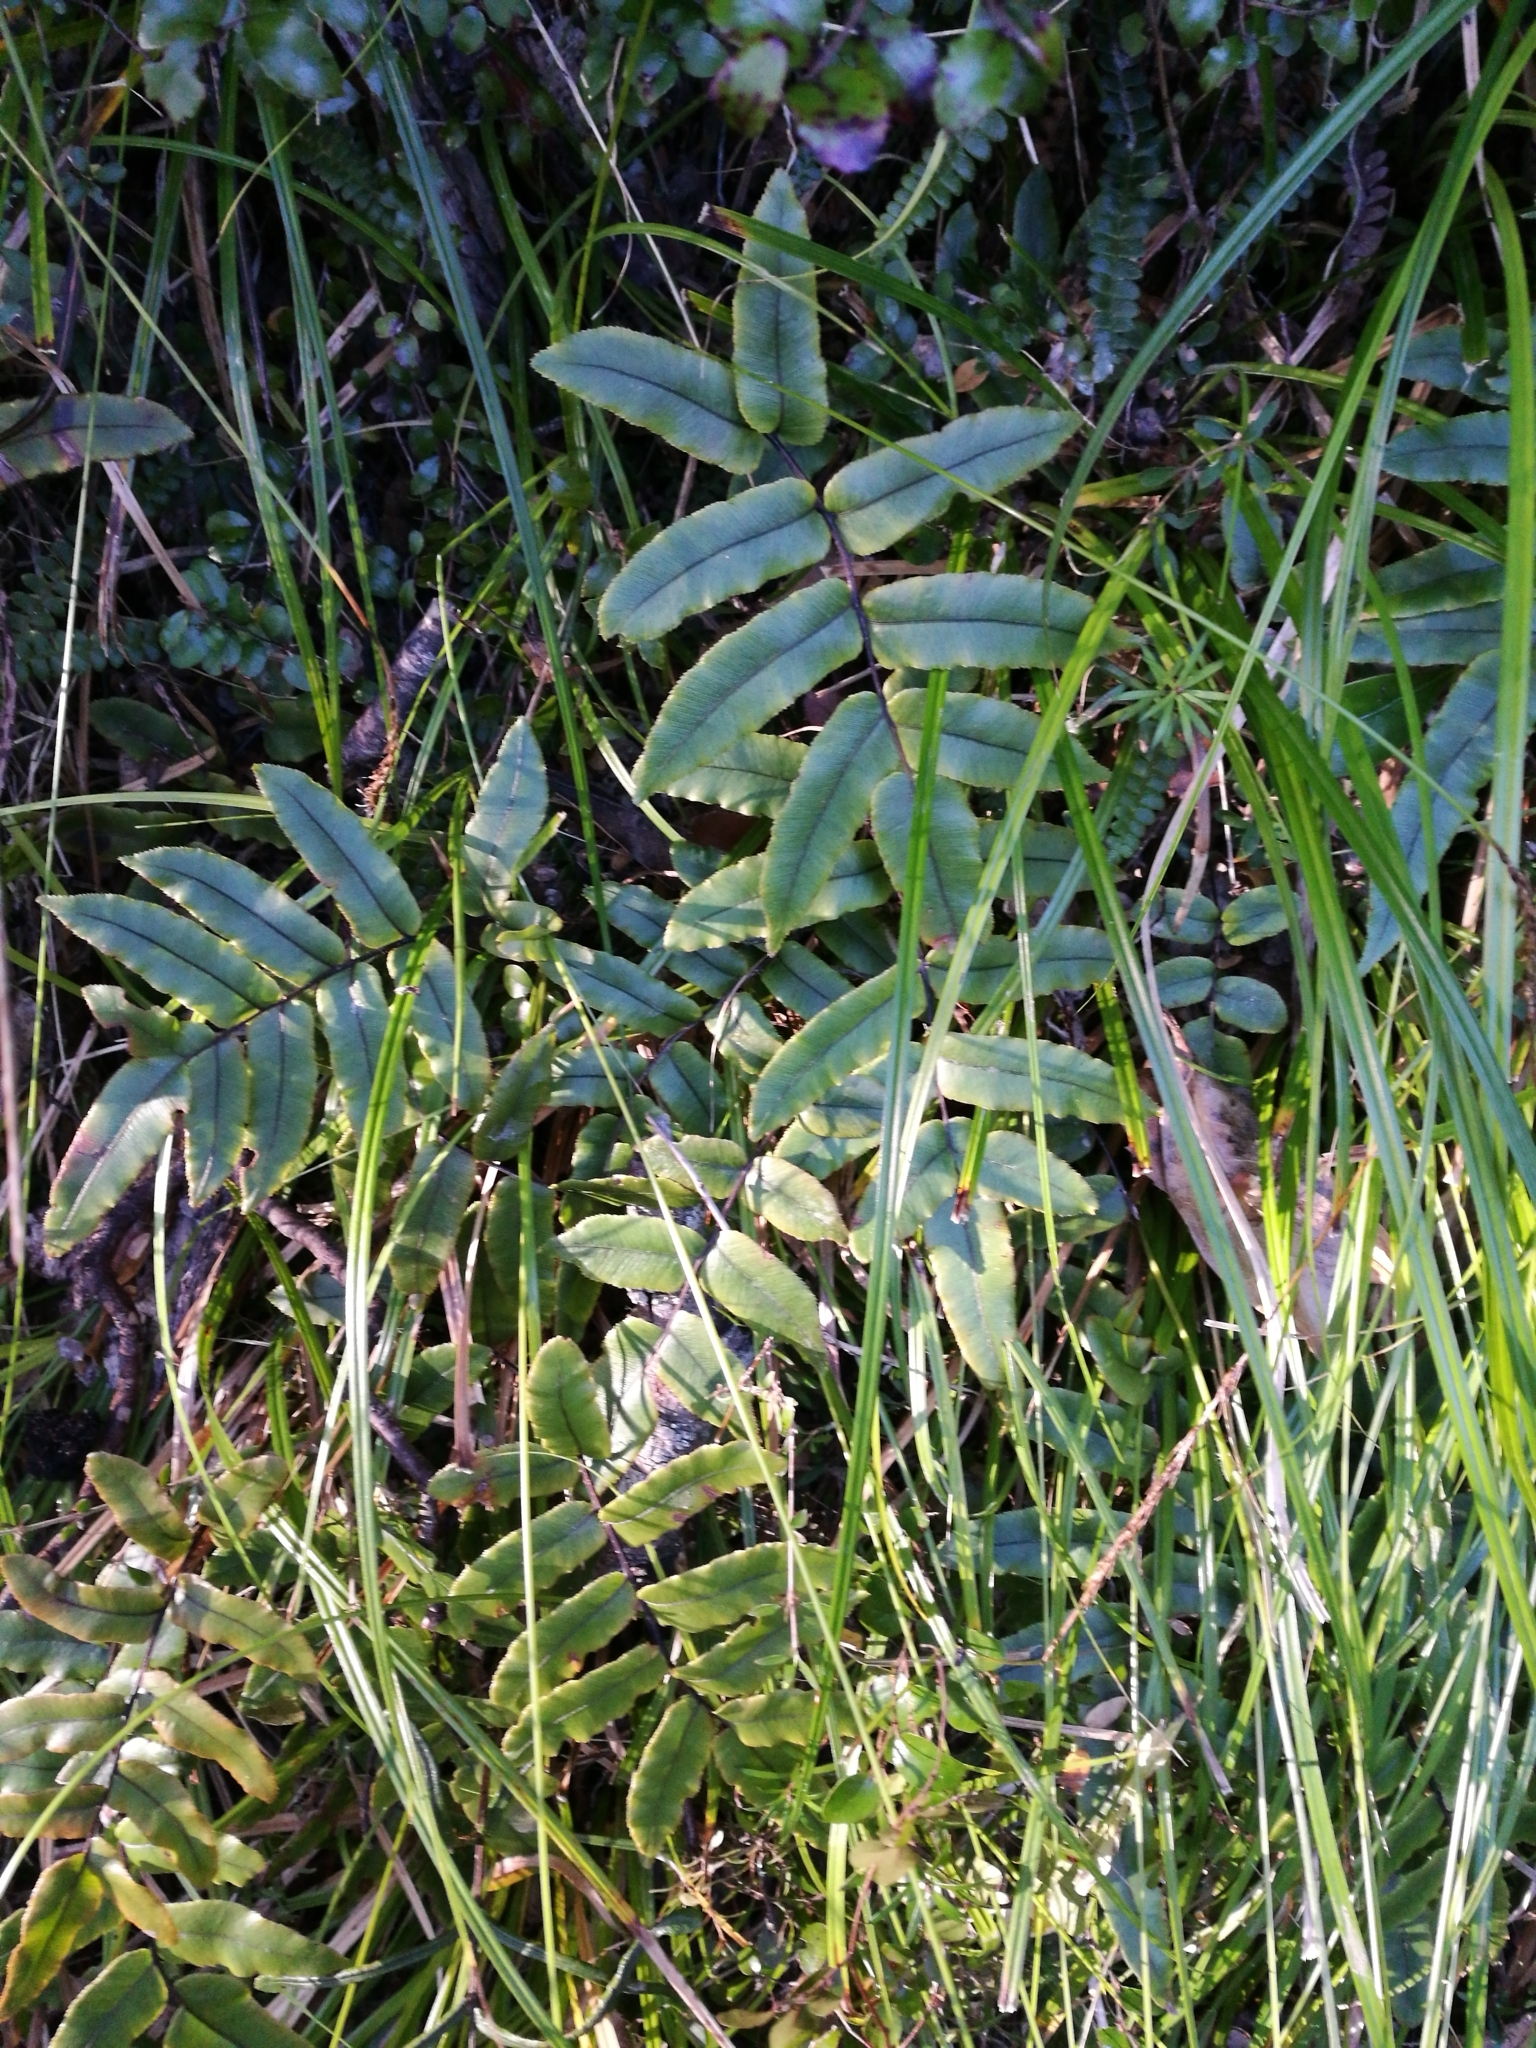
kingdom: Plantae
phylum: Tracheophyta
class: Polypodiopsida
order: Polypodiales
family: Blechnaceae
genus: Parablechnum
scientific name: Parablechnum procerum
